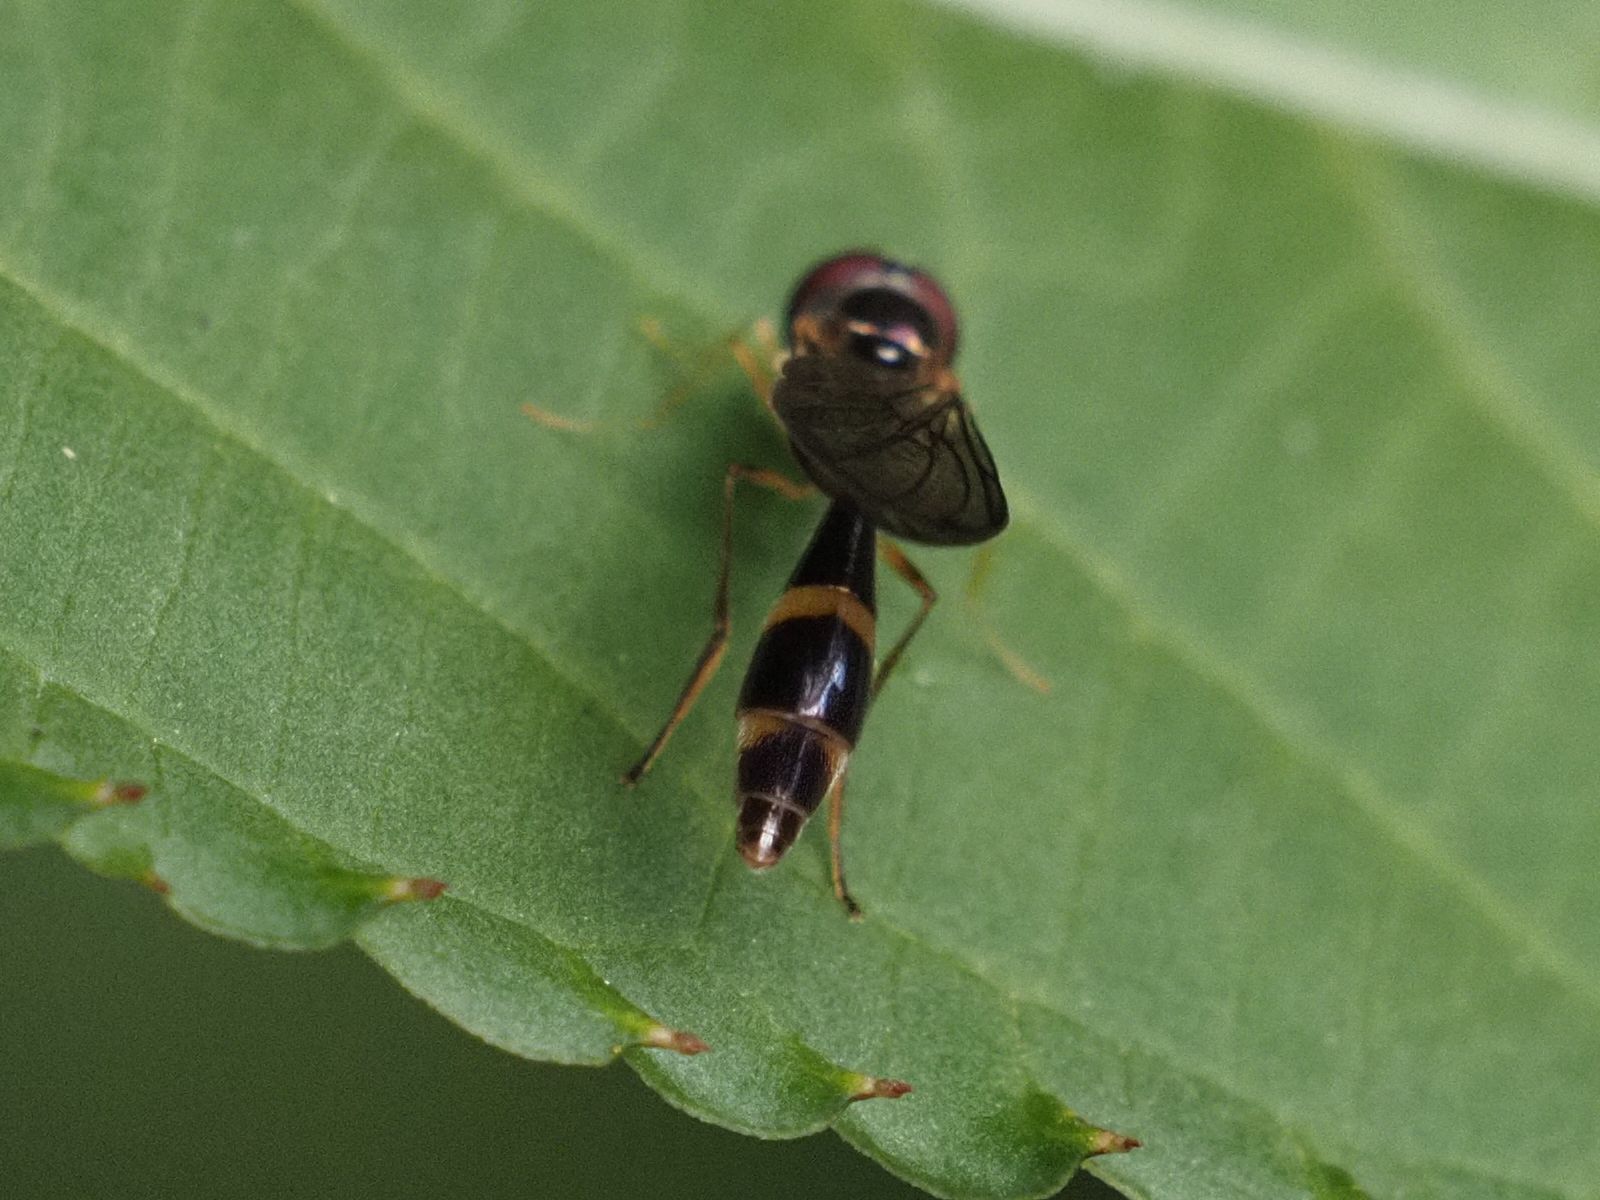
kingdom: Animalia
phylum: Arthropoda
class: Insecta
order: Diptera
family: Syrphidae
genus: Baccha
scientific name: Baccha elongata
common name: Common dainty
